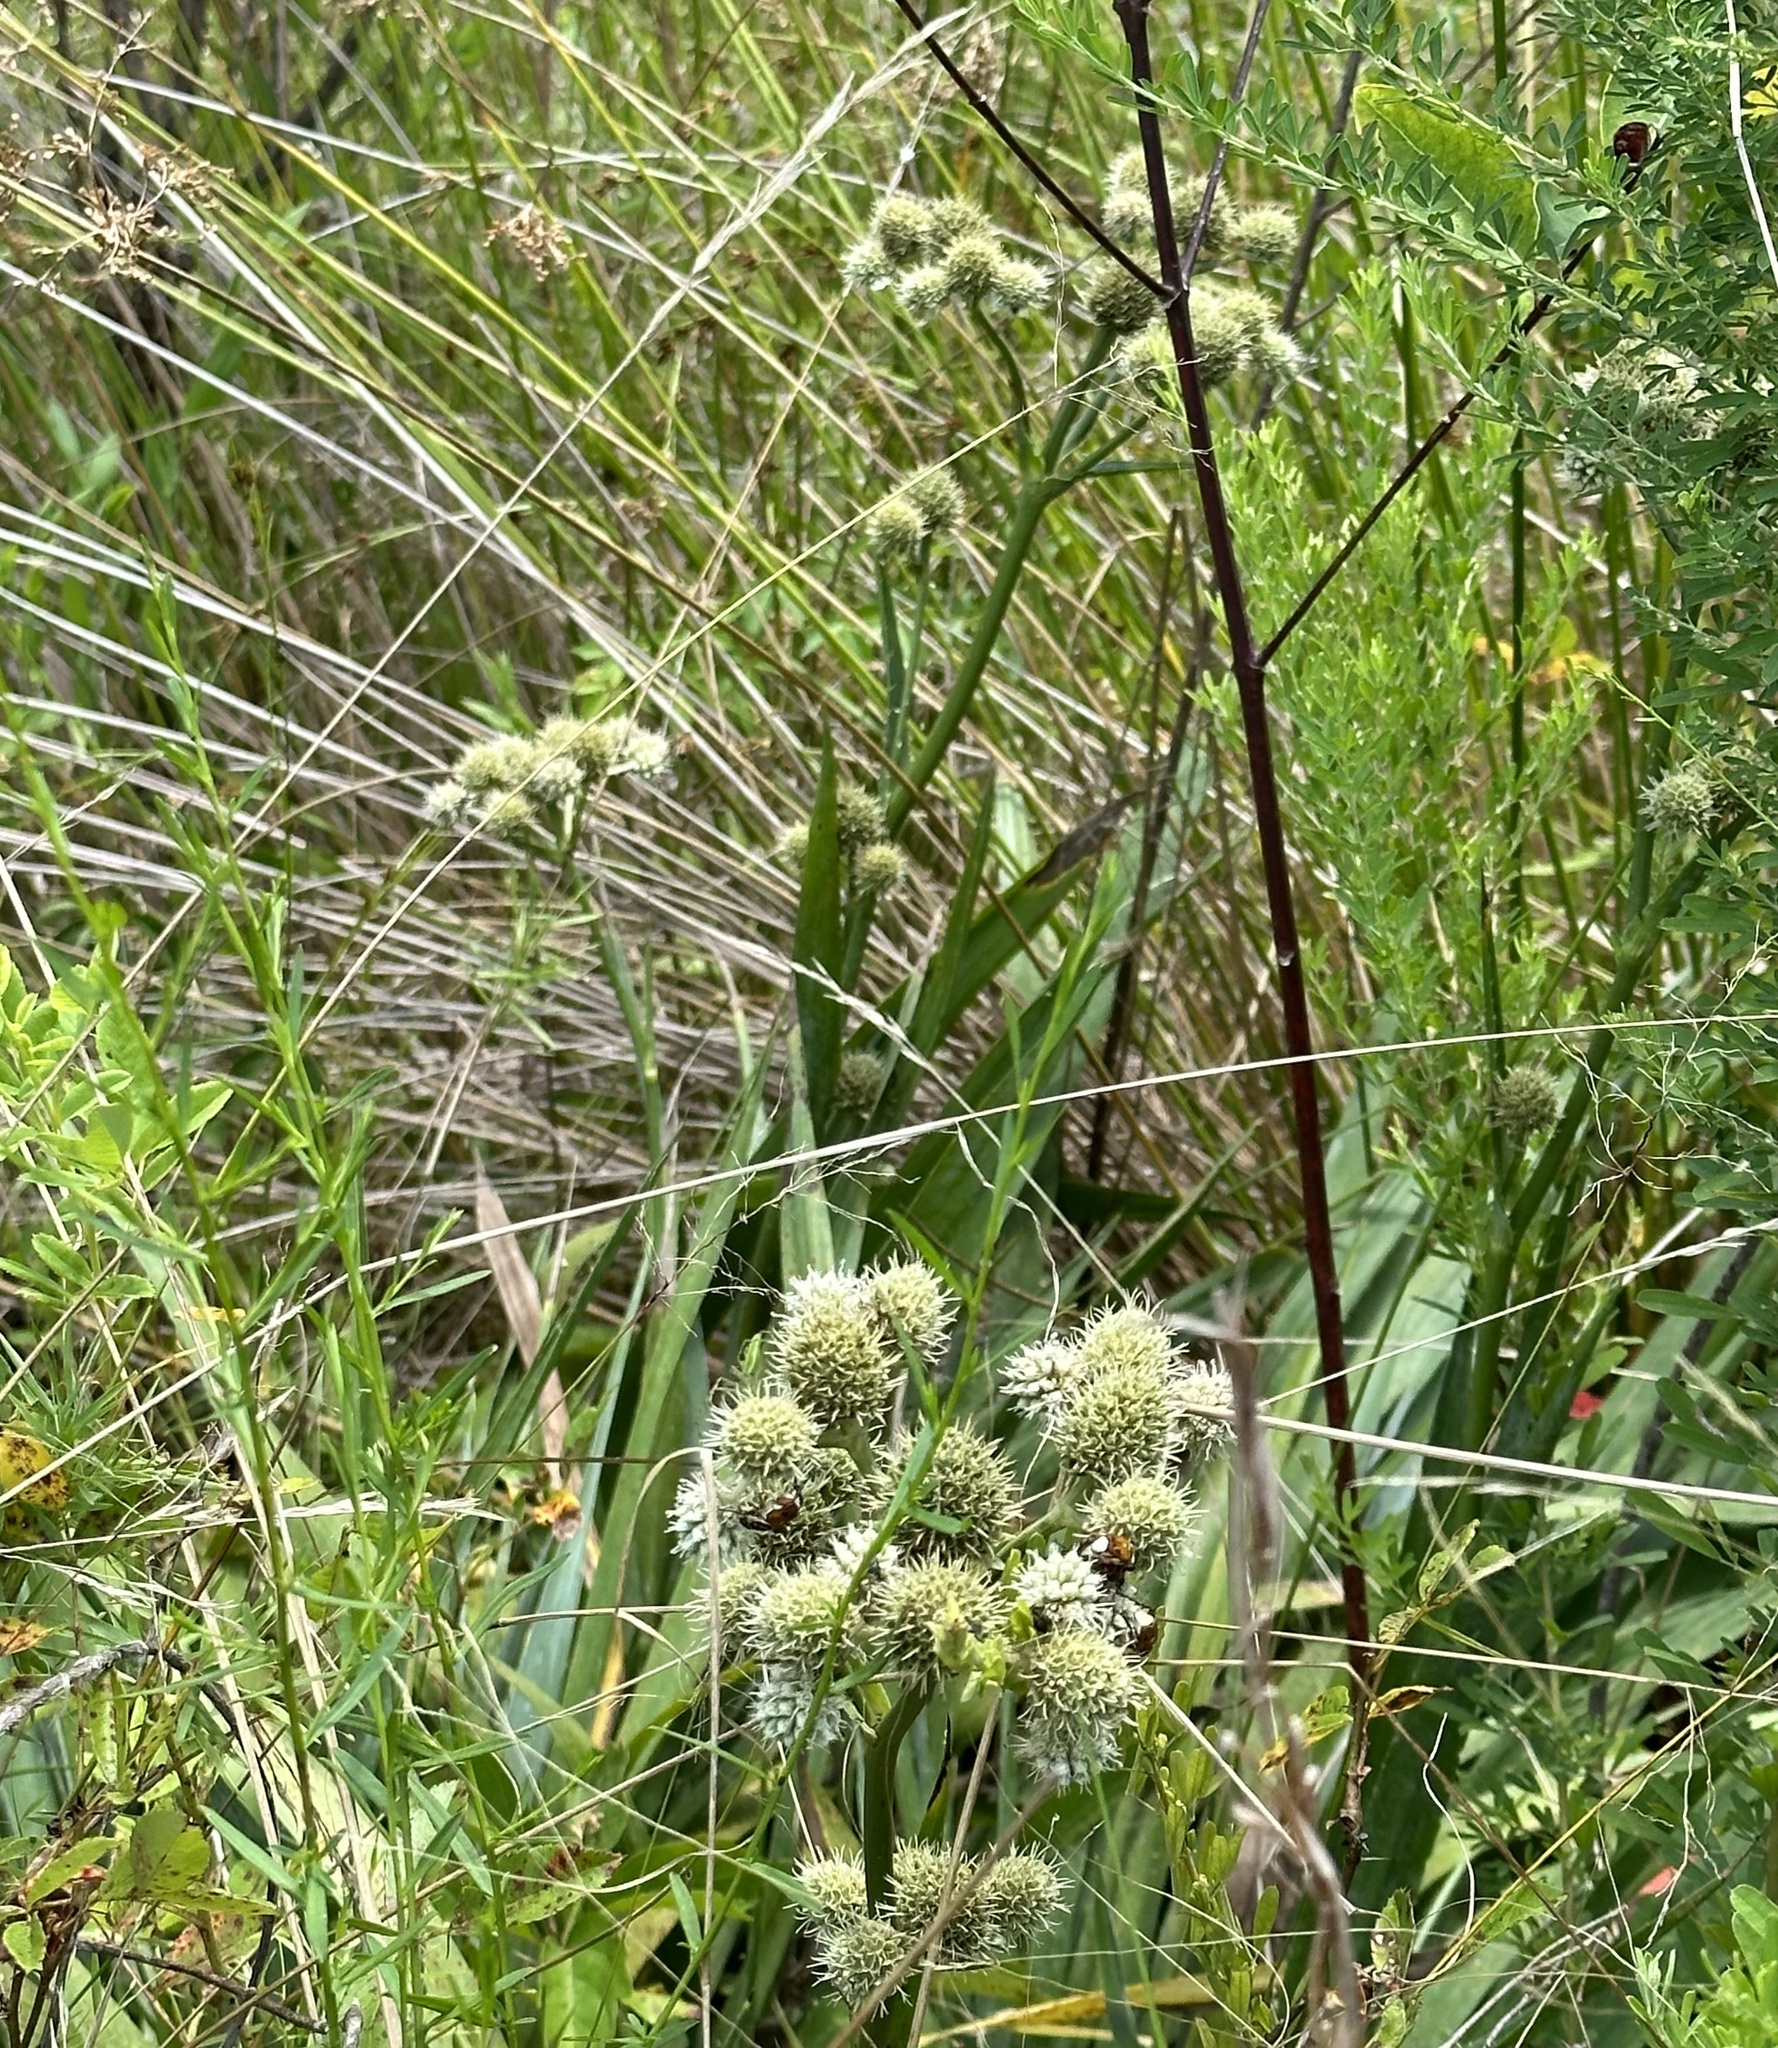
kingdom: Plantae
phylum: Tracheophyta
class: Magnoliopsida
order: Apiales
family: Apiaceae
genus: Eryngium
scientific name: Eryngium yuccifolium
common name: Button eryngo
